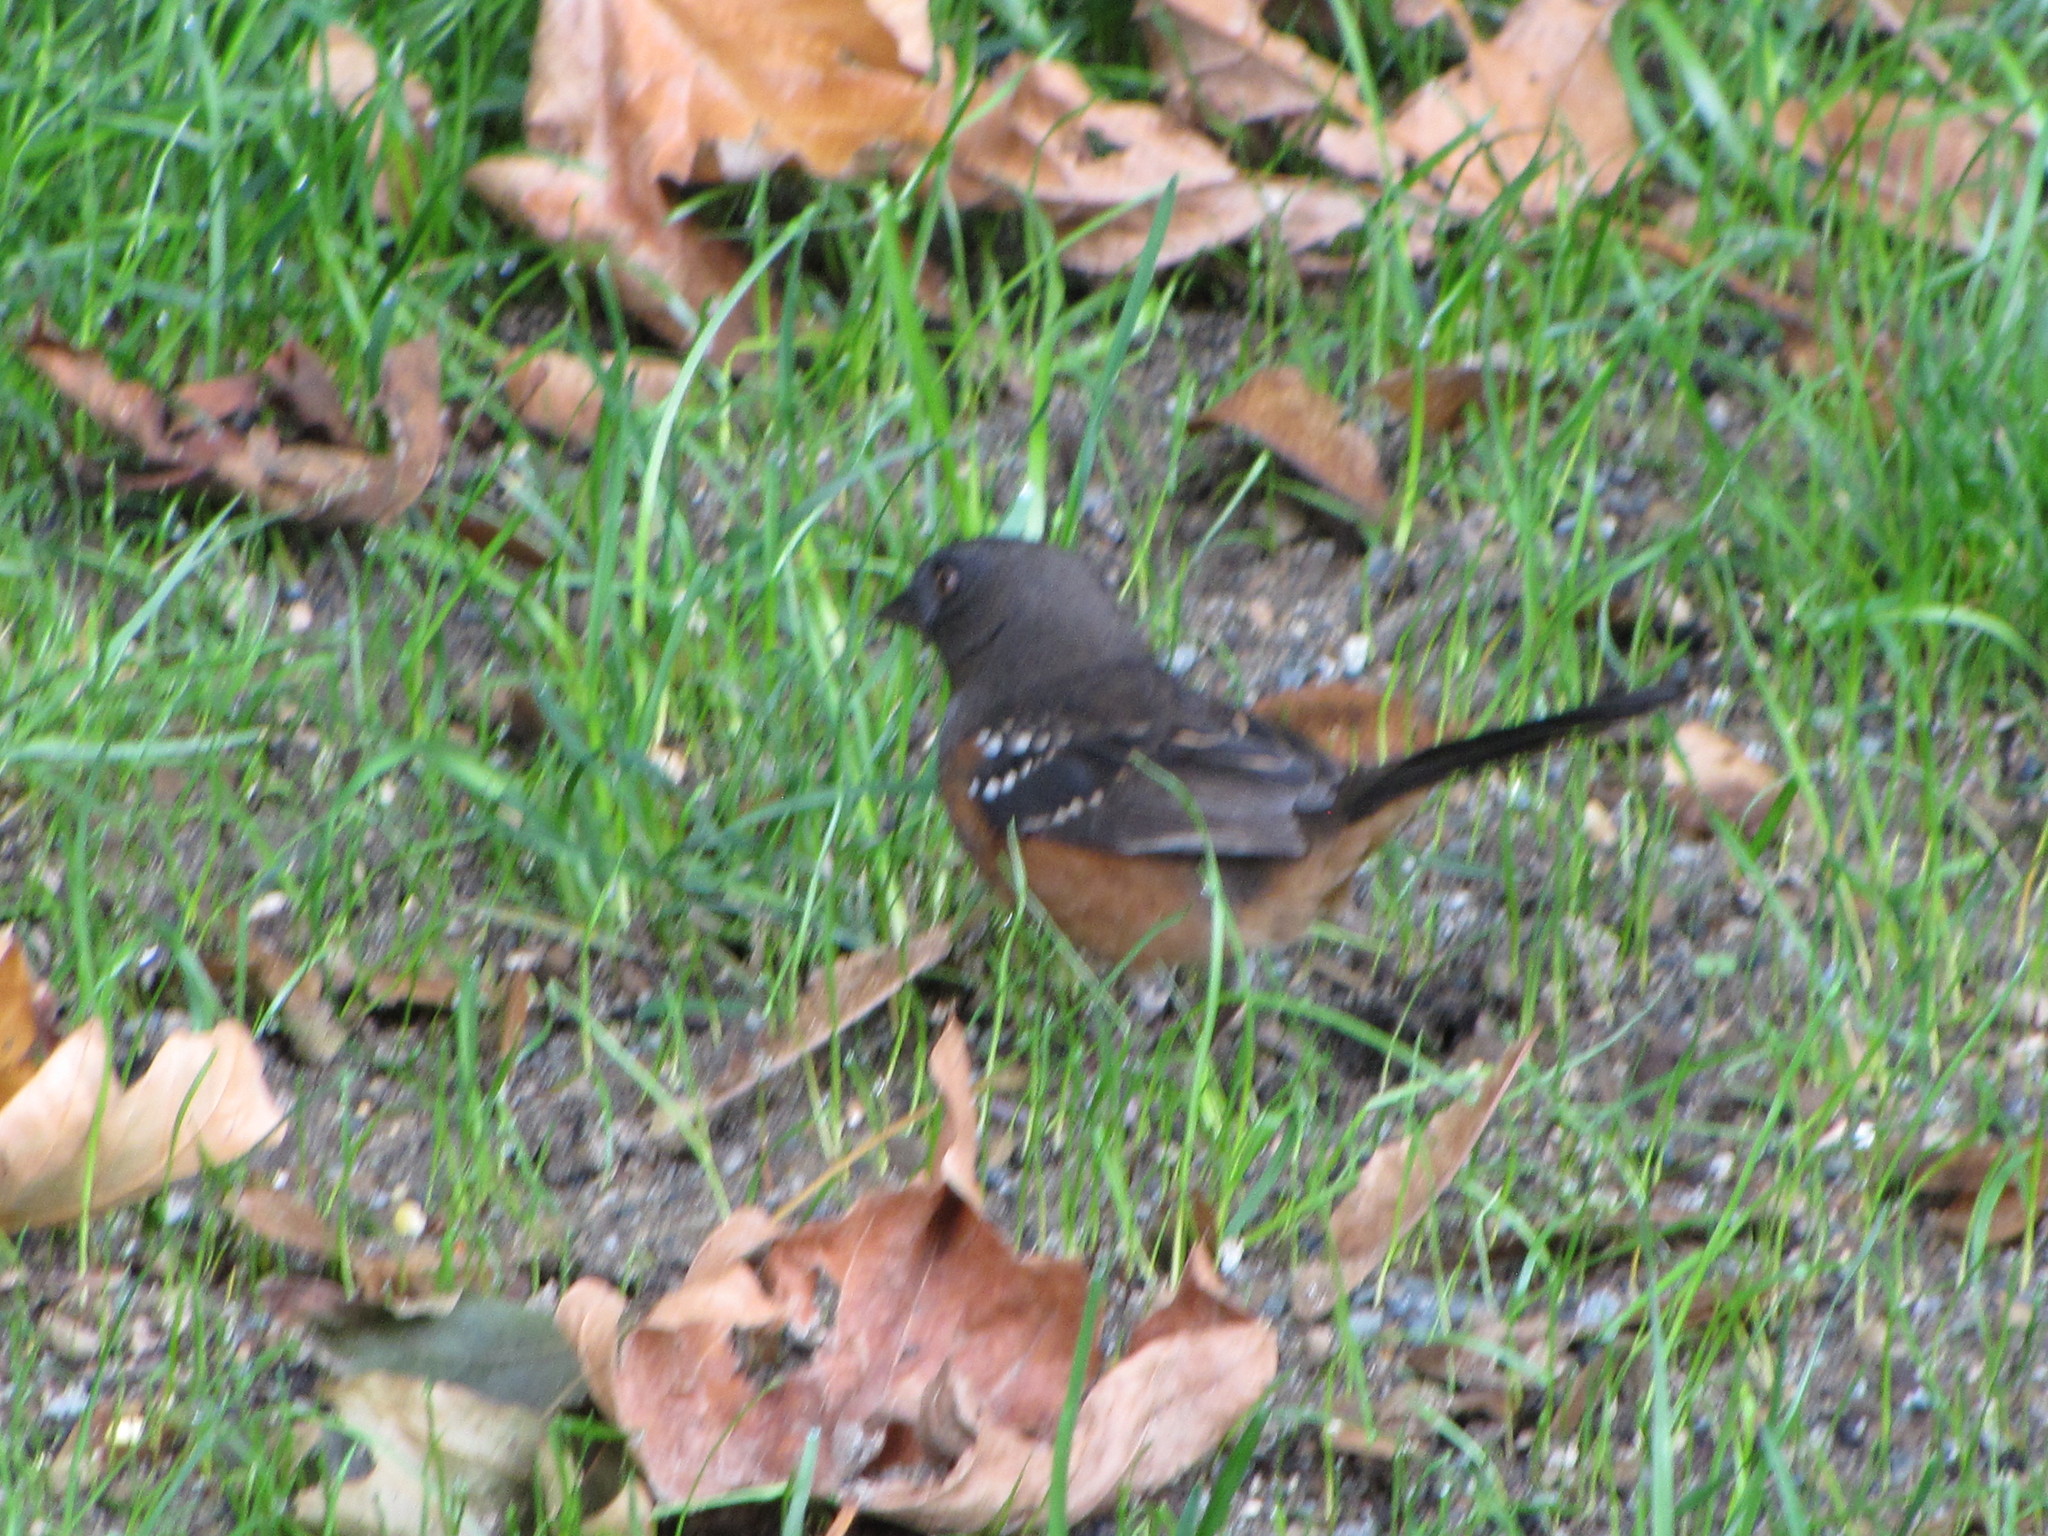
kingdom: Animalia
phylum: Chordata
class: Aves
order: Passeriformes
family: Passerellidae
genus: Pipilo
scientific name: Pipilo maculatus
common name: Spotted towhee
